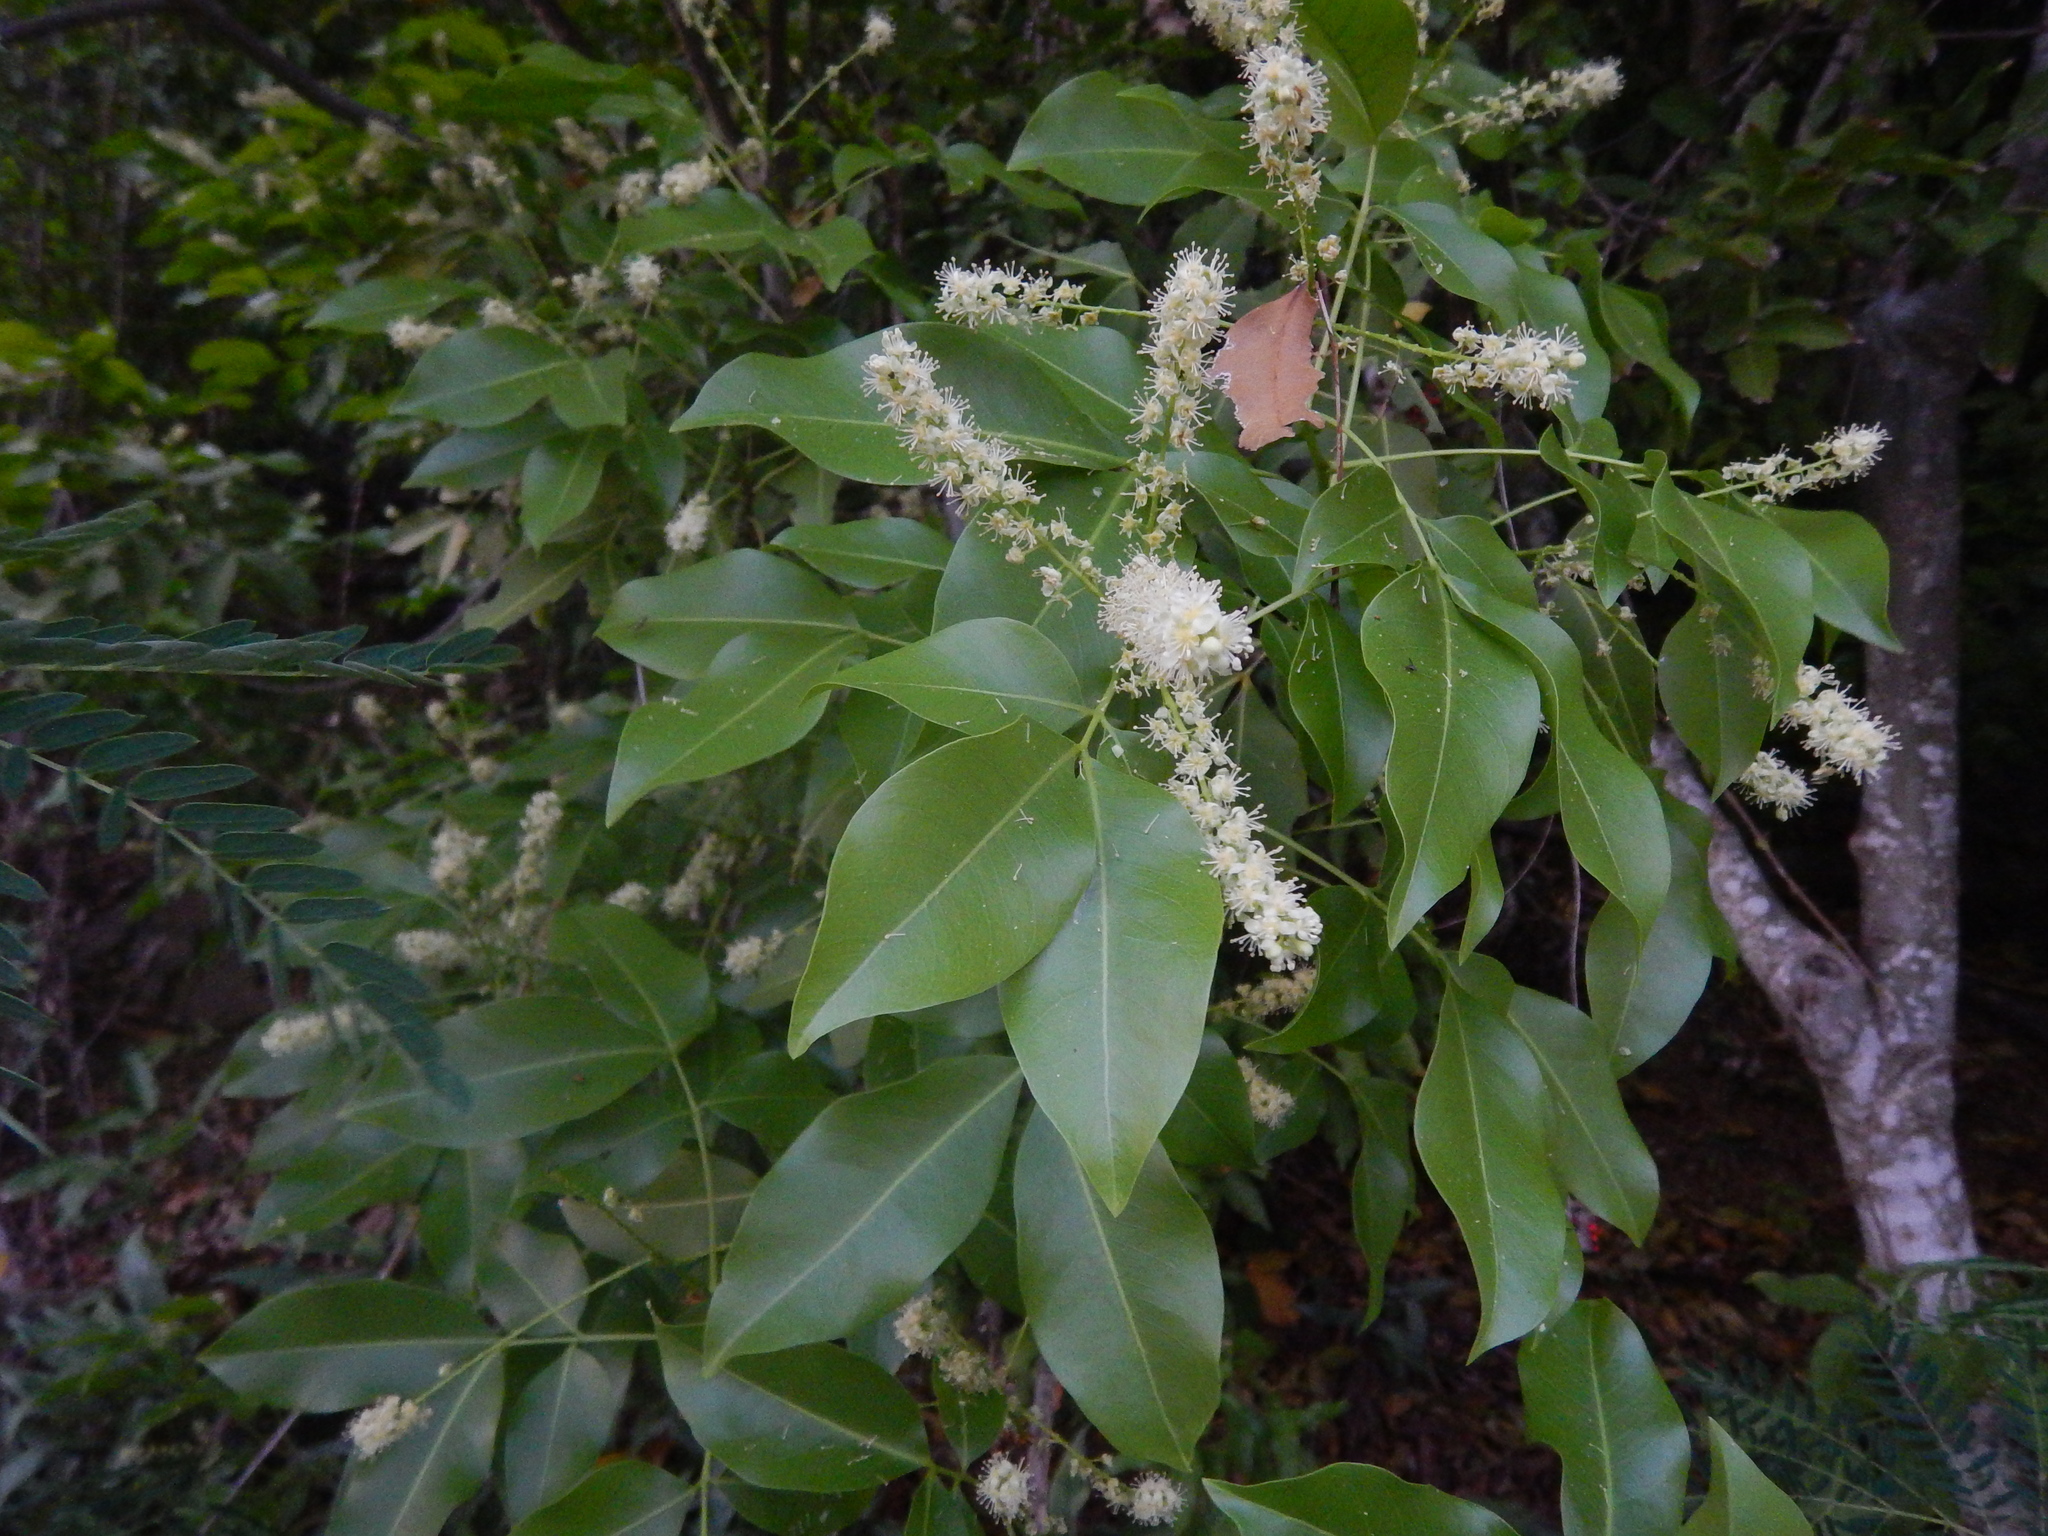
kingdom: Plantae
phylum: Tracheophyta
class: Magnoliopsida
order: Fabales
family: Fabaceae
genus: Inga
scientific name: Inga laurina
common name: Red wood
